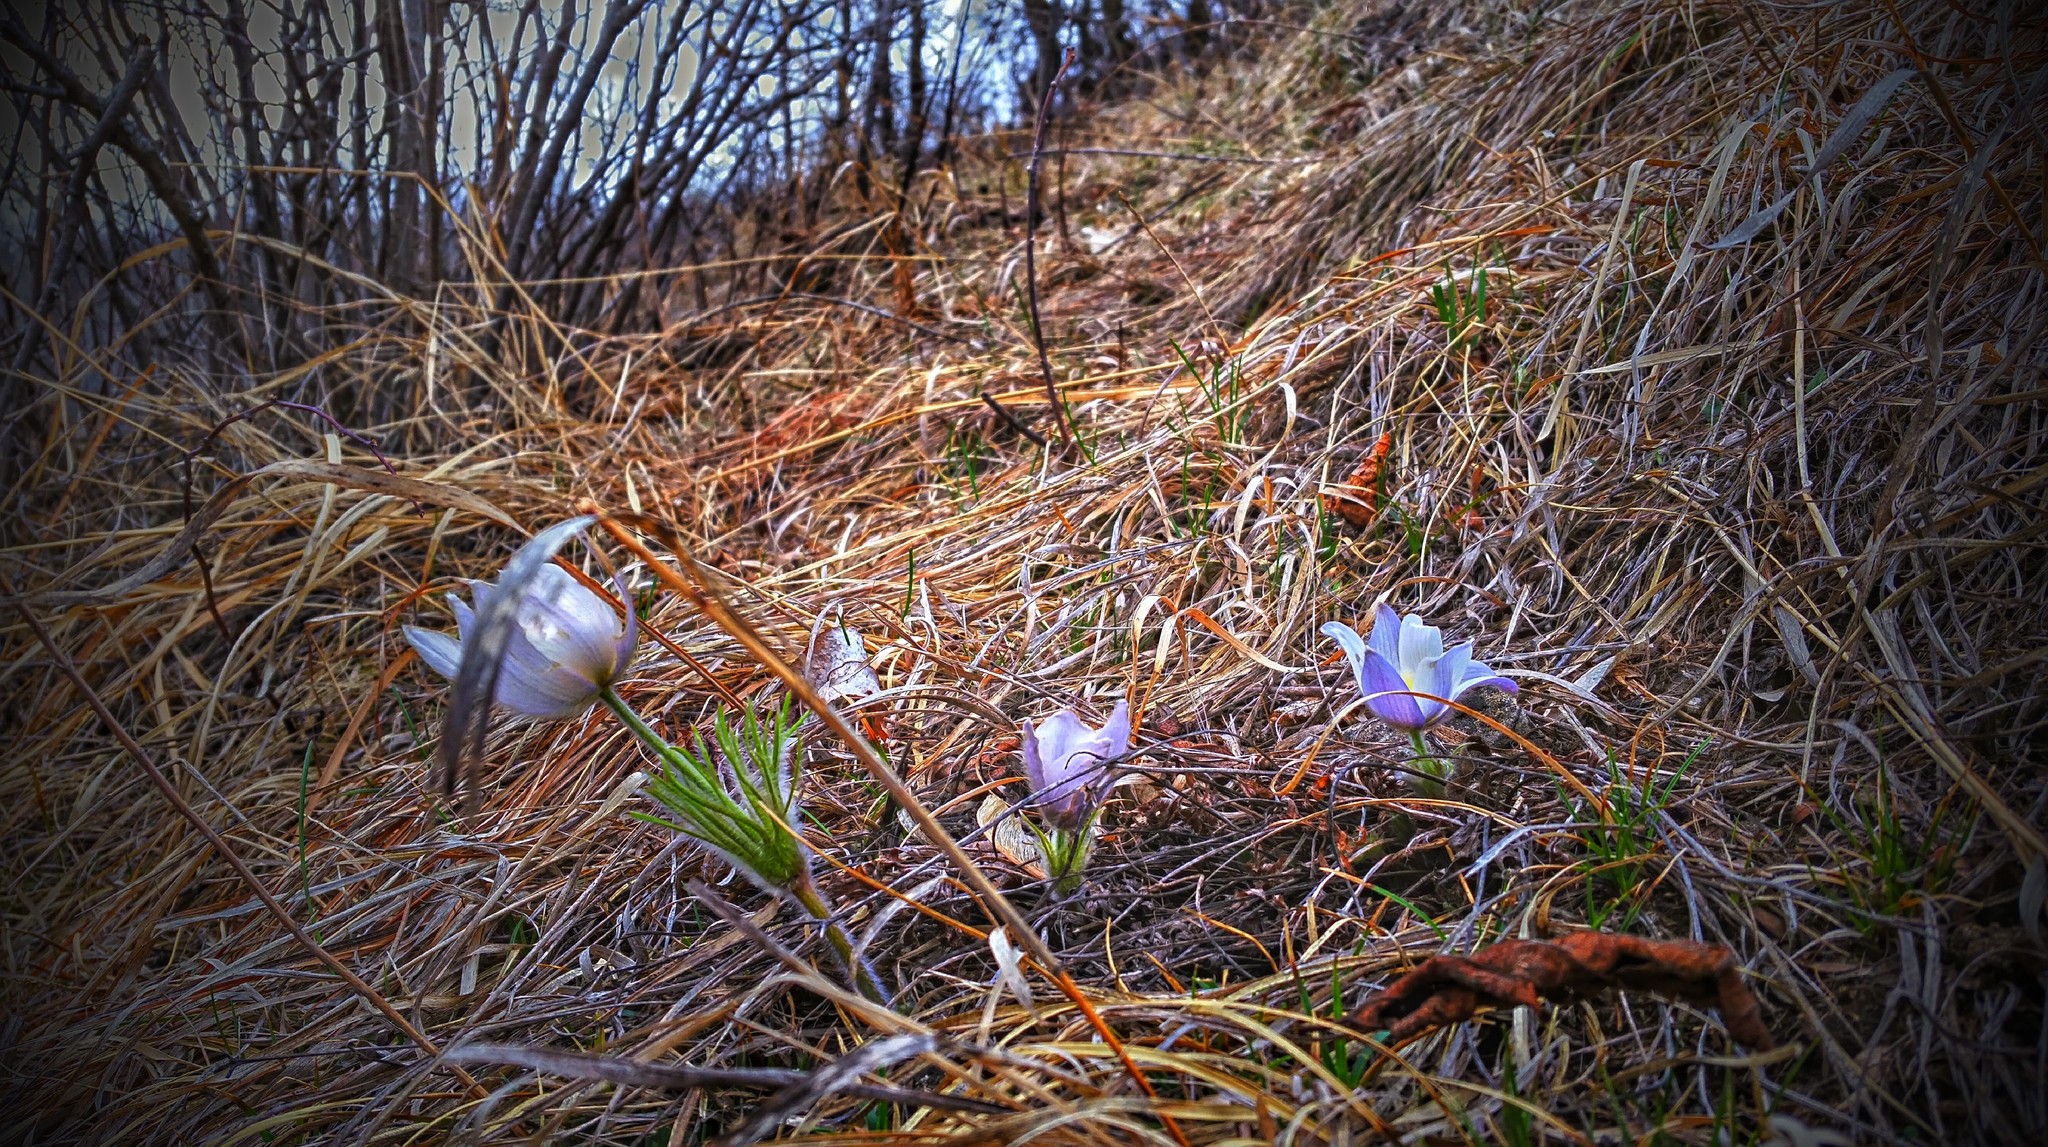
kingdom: Plantae
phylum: Tracheophyta
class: Magnoliopsida
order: Ranunculales
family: Ranunculaceae
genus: Pulsatilla
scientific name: Pulsatilla nuttalliana
